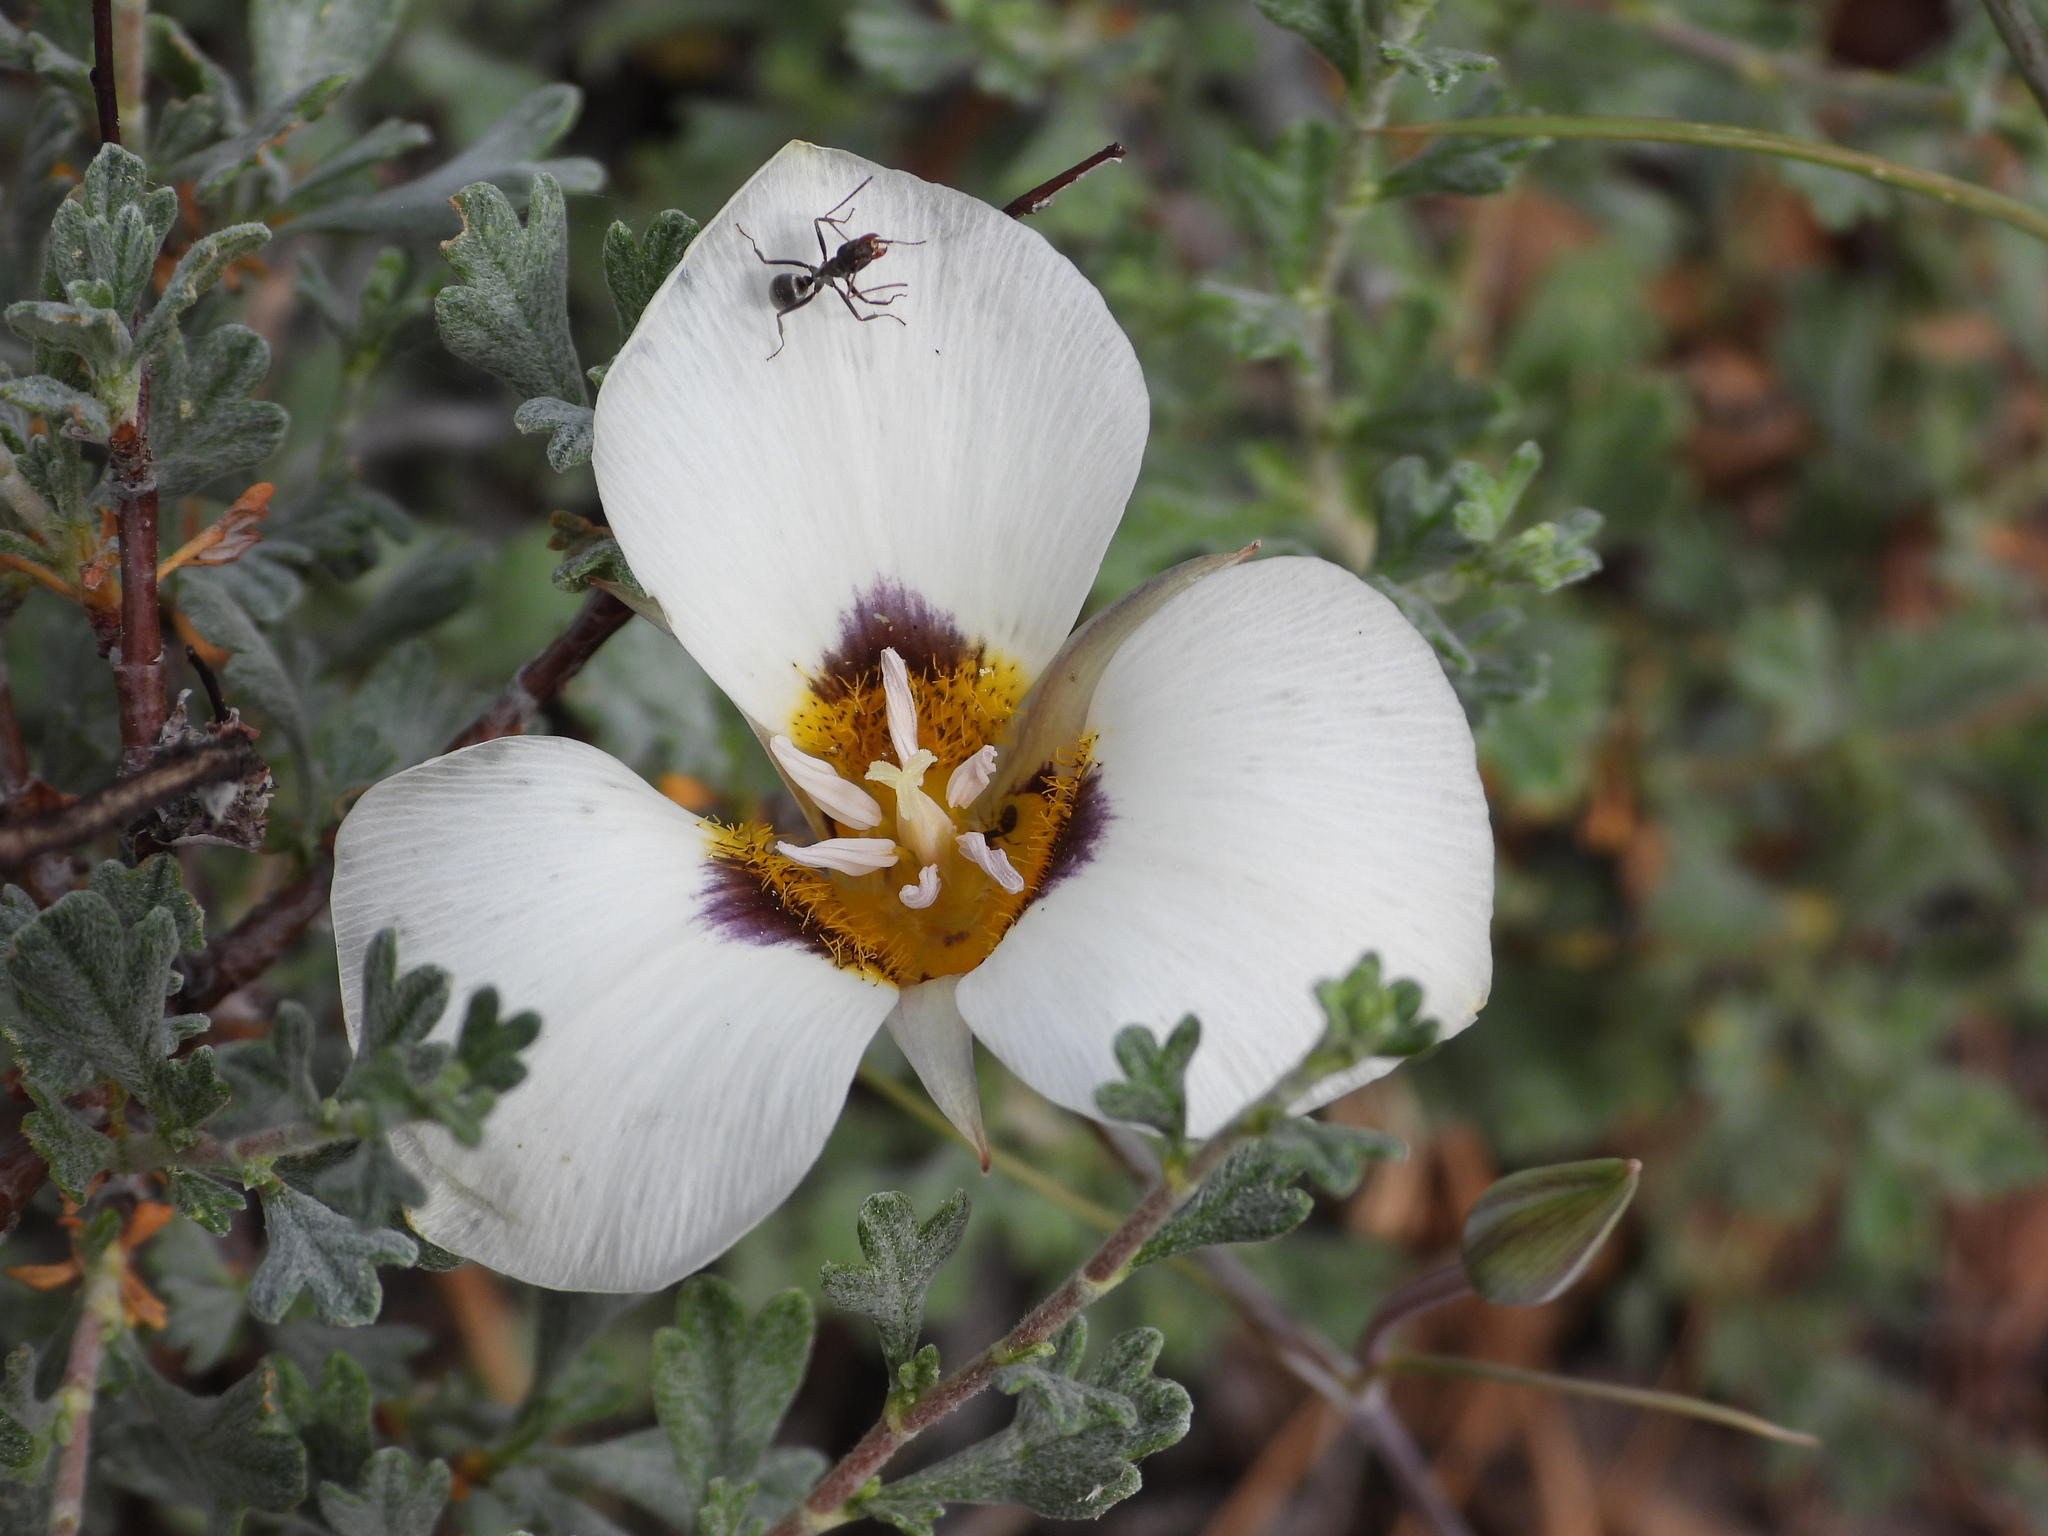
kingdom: Plantae
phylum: Tracheophyta
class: Liliopsida
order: Liliales
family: Liliaceae
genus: Calochortus
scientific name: Calochortus leichtlinii
